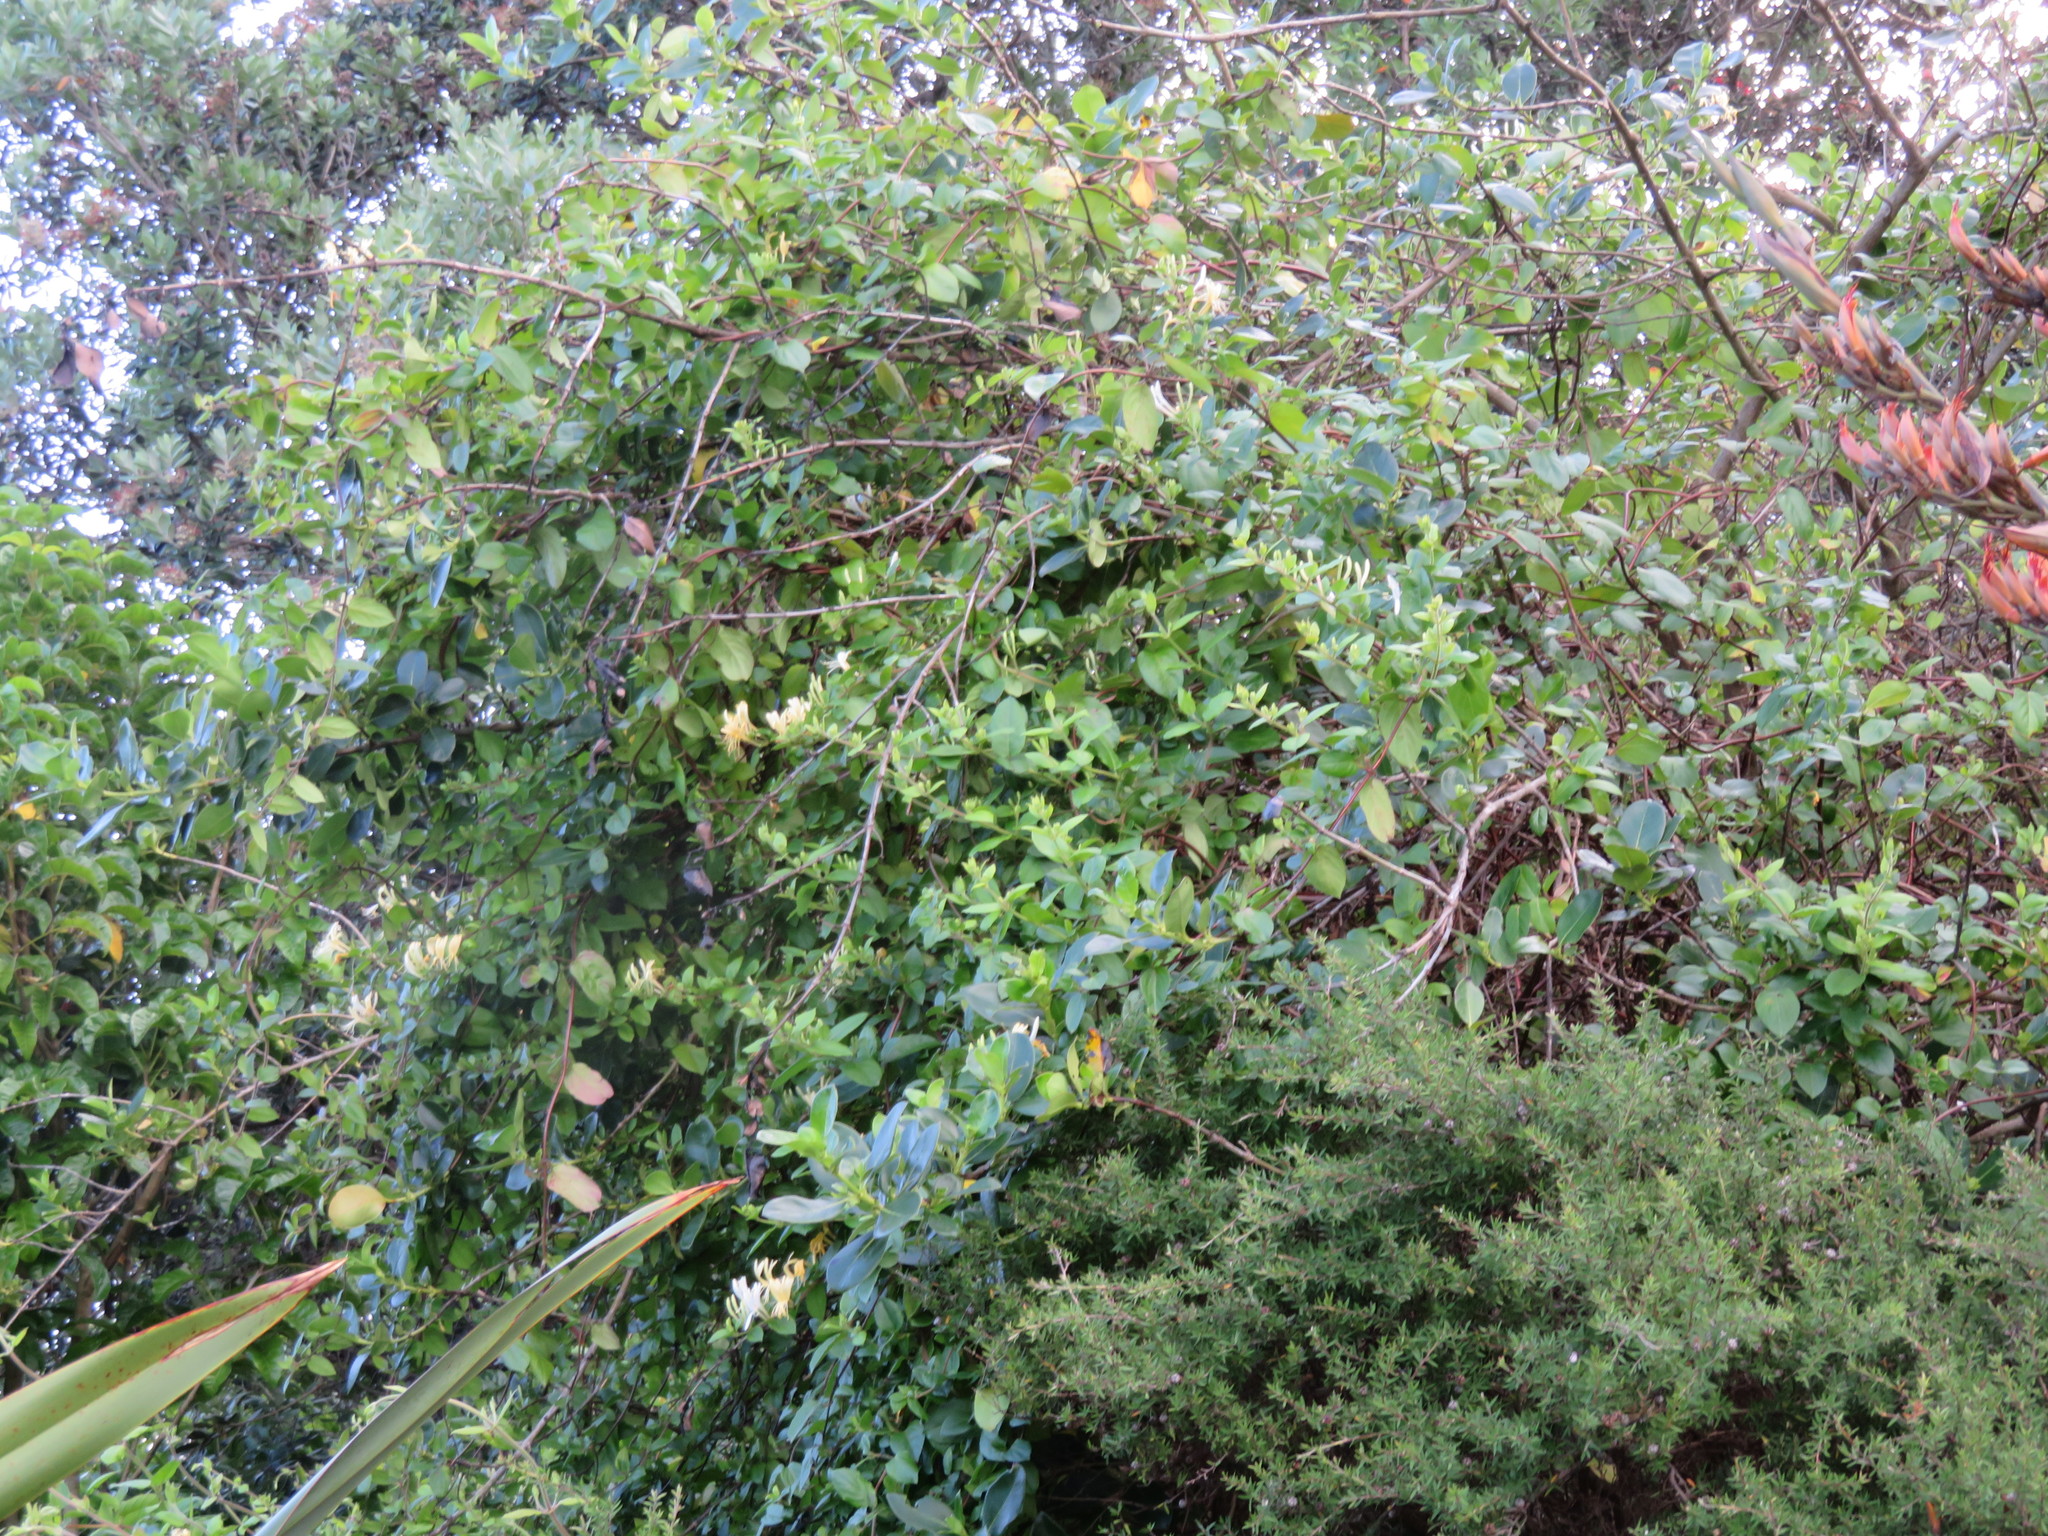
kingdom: Plantae
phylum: Tracheophyta
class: Magnoliopsida
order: Myrtales
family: Myrtaceae
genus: Leptospermum
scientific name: Leptospermum scoparium
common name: Broom tea-tree
